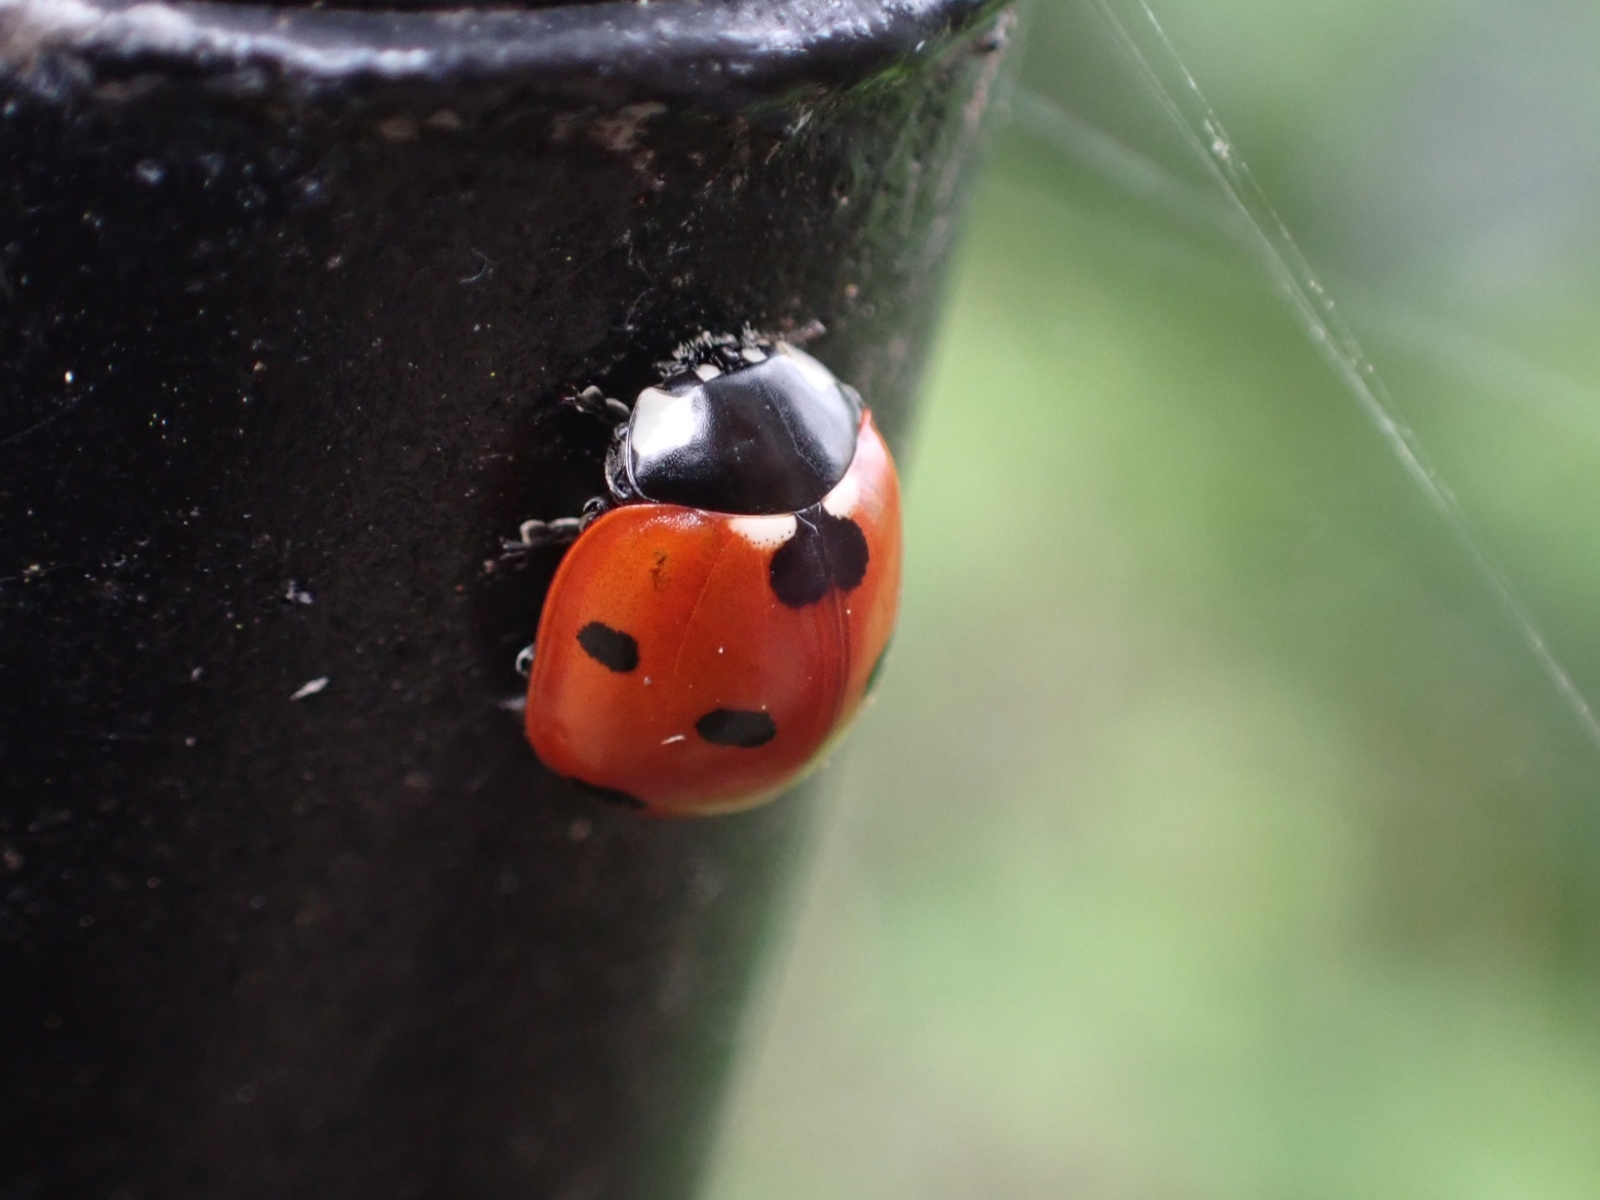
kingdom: Animalia
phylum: Arthropoda
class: Insecta
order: Coleoptera
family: Coccinellidae
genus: Coccinella
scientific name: Coccinella septempunctata
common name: Sevenspotted lady beetle
